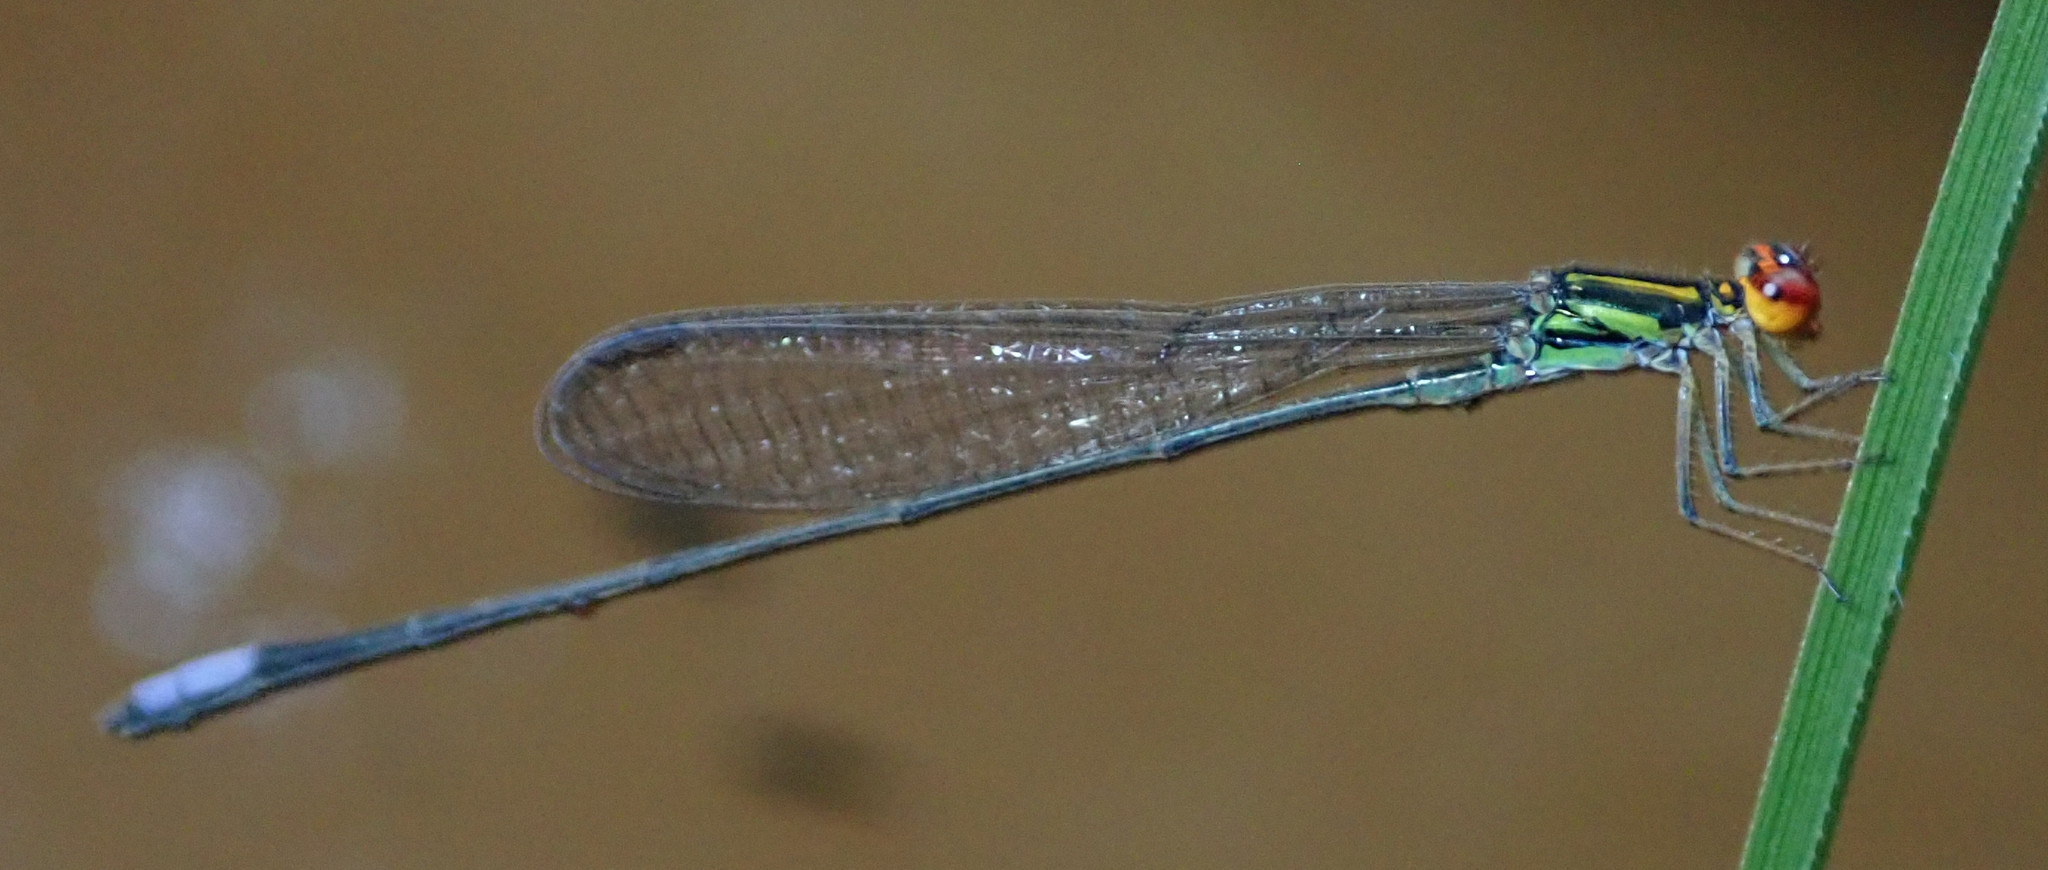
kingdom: Animalia
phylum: Arthropoda
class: Insecta
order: Odonata
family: Coenagrionidae
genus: Pseudagrion
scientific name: Pseudagrion hageni
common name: Painted sprite
